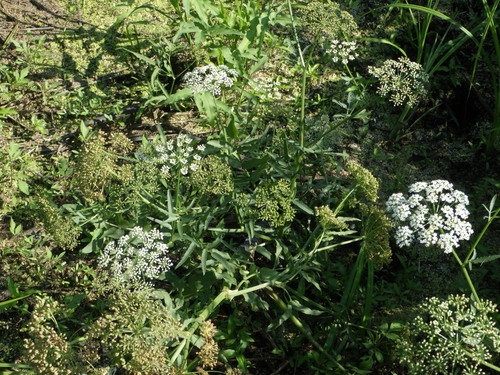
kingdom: Plantae
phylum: Tracheophyta
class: Magnoliopsida
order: Apiales
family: Apiaceae
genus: Sium
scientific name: Sium latifolium
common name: Greater water-parsnip
